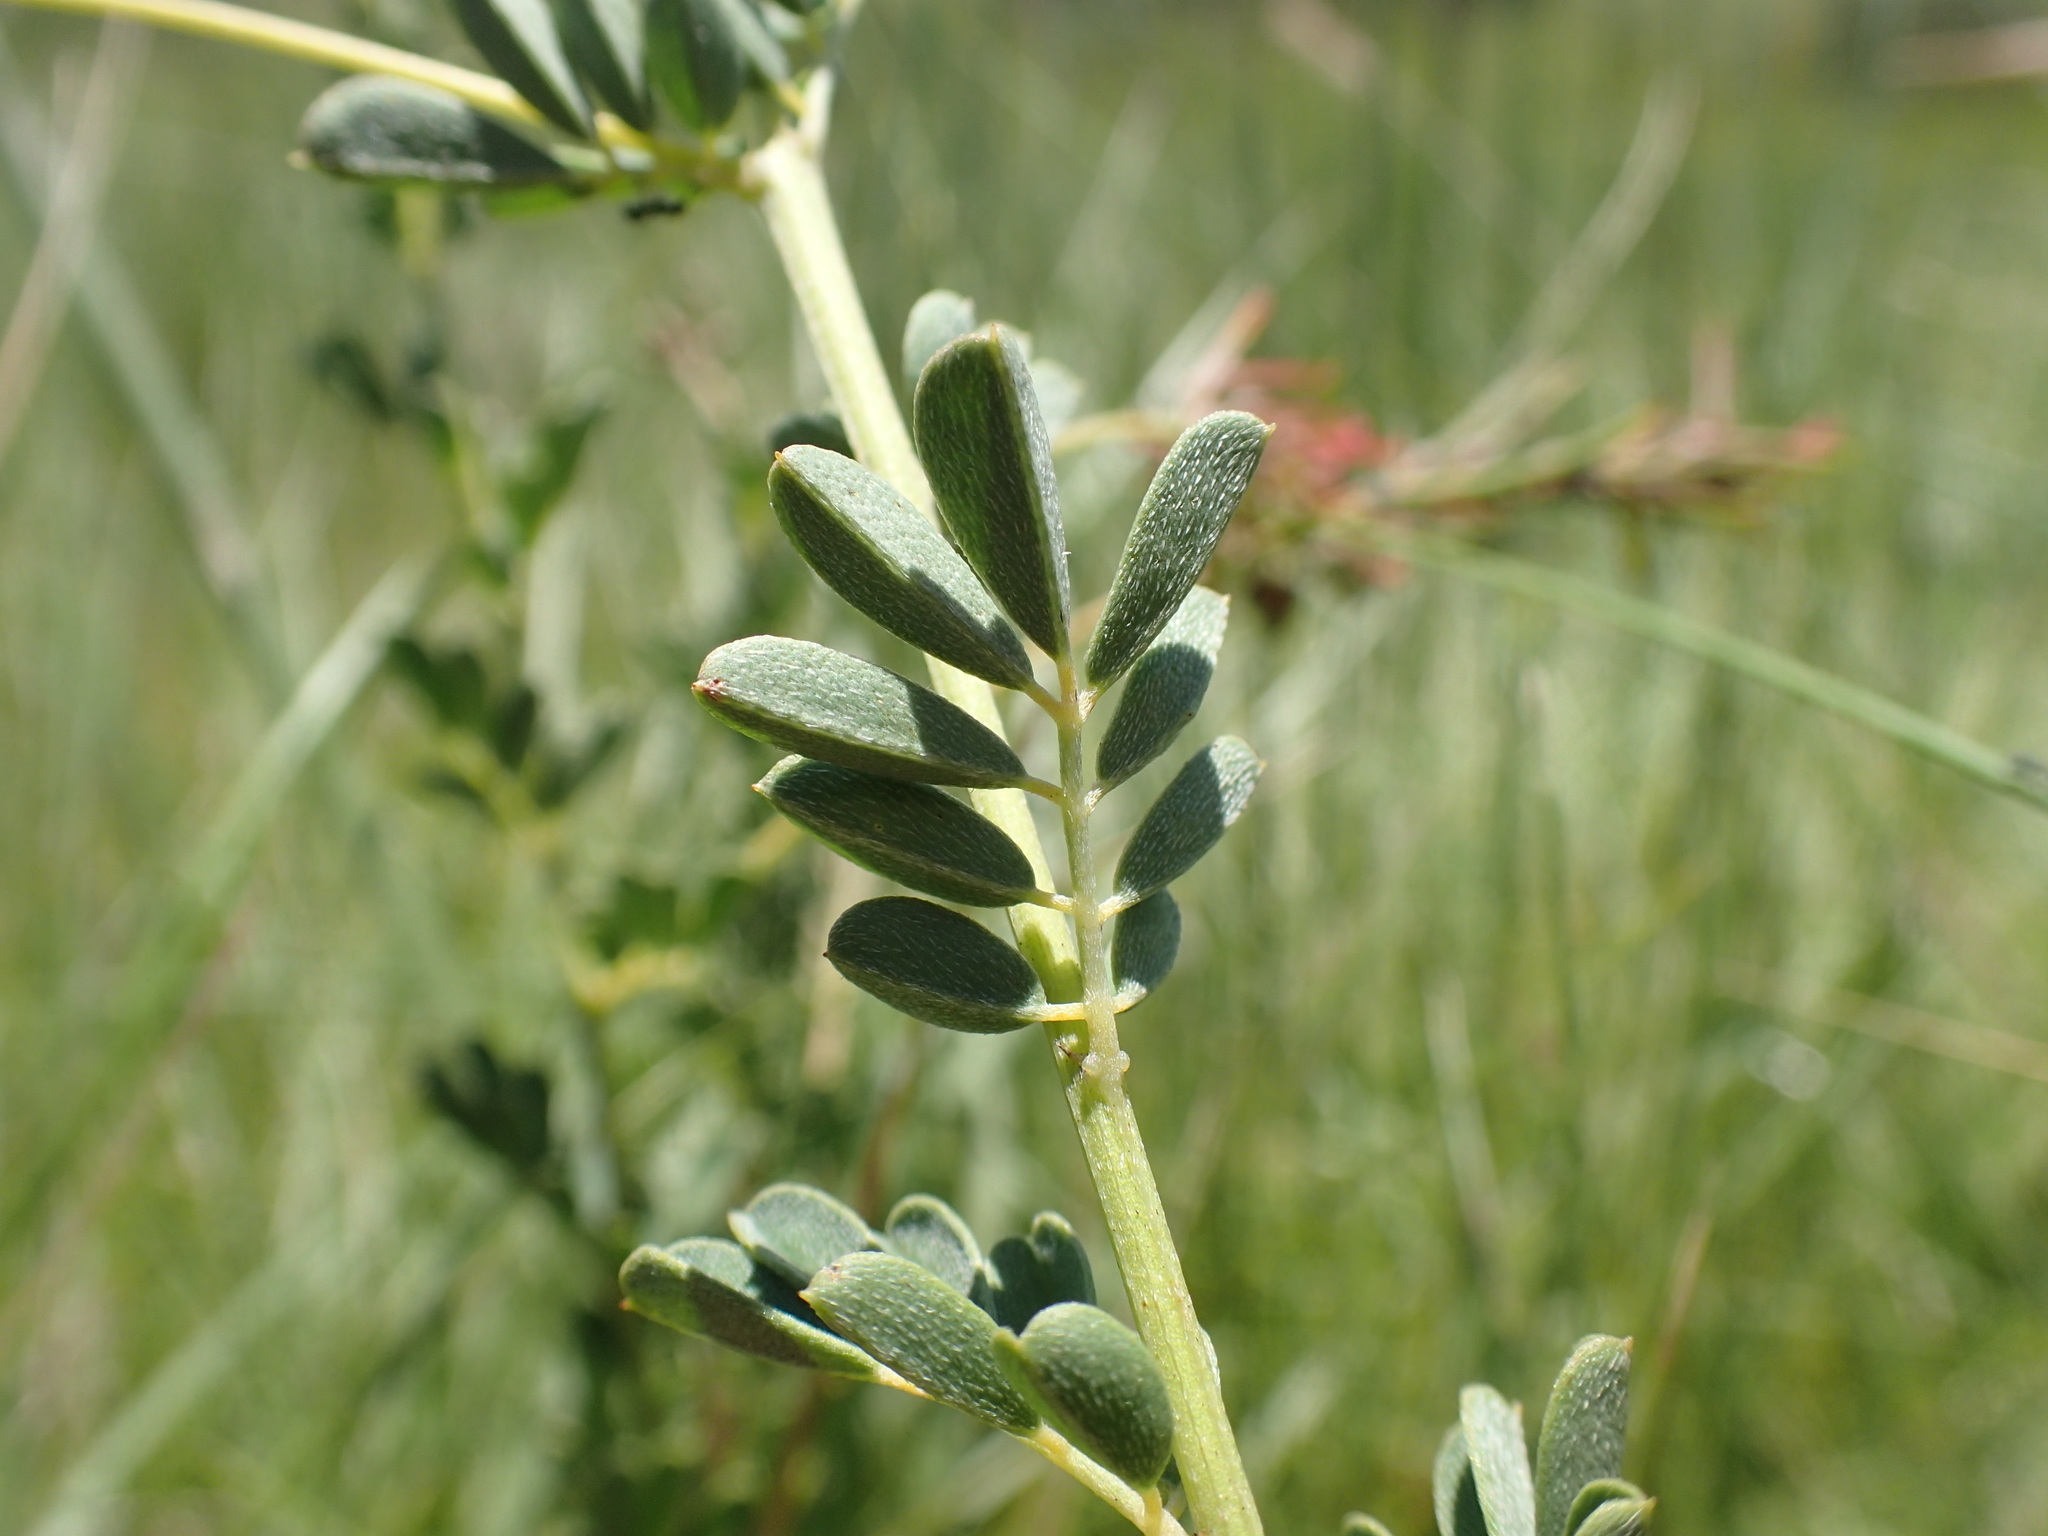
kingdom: Plantae
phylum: Tracheophyta
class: Magnoliopsida
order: Fabales
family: Fabaceae
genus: Indigofera
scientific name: Indigofera hedyantha
